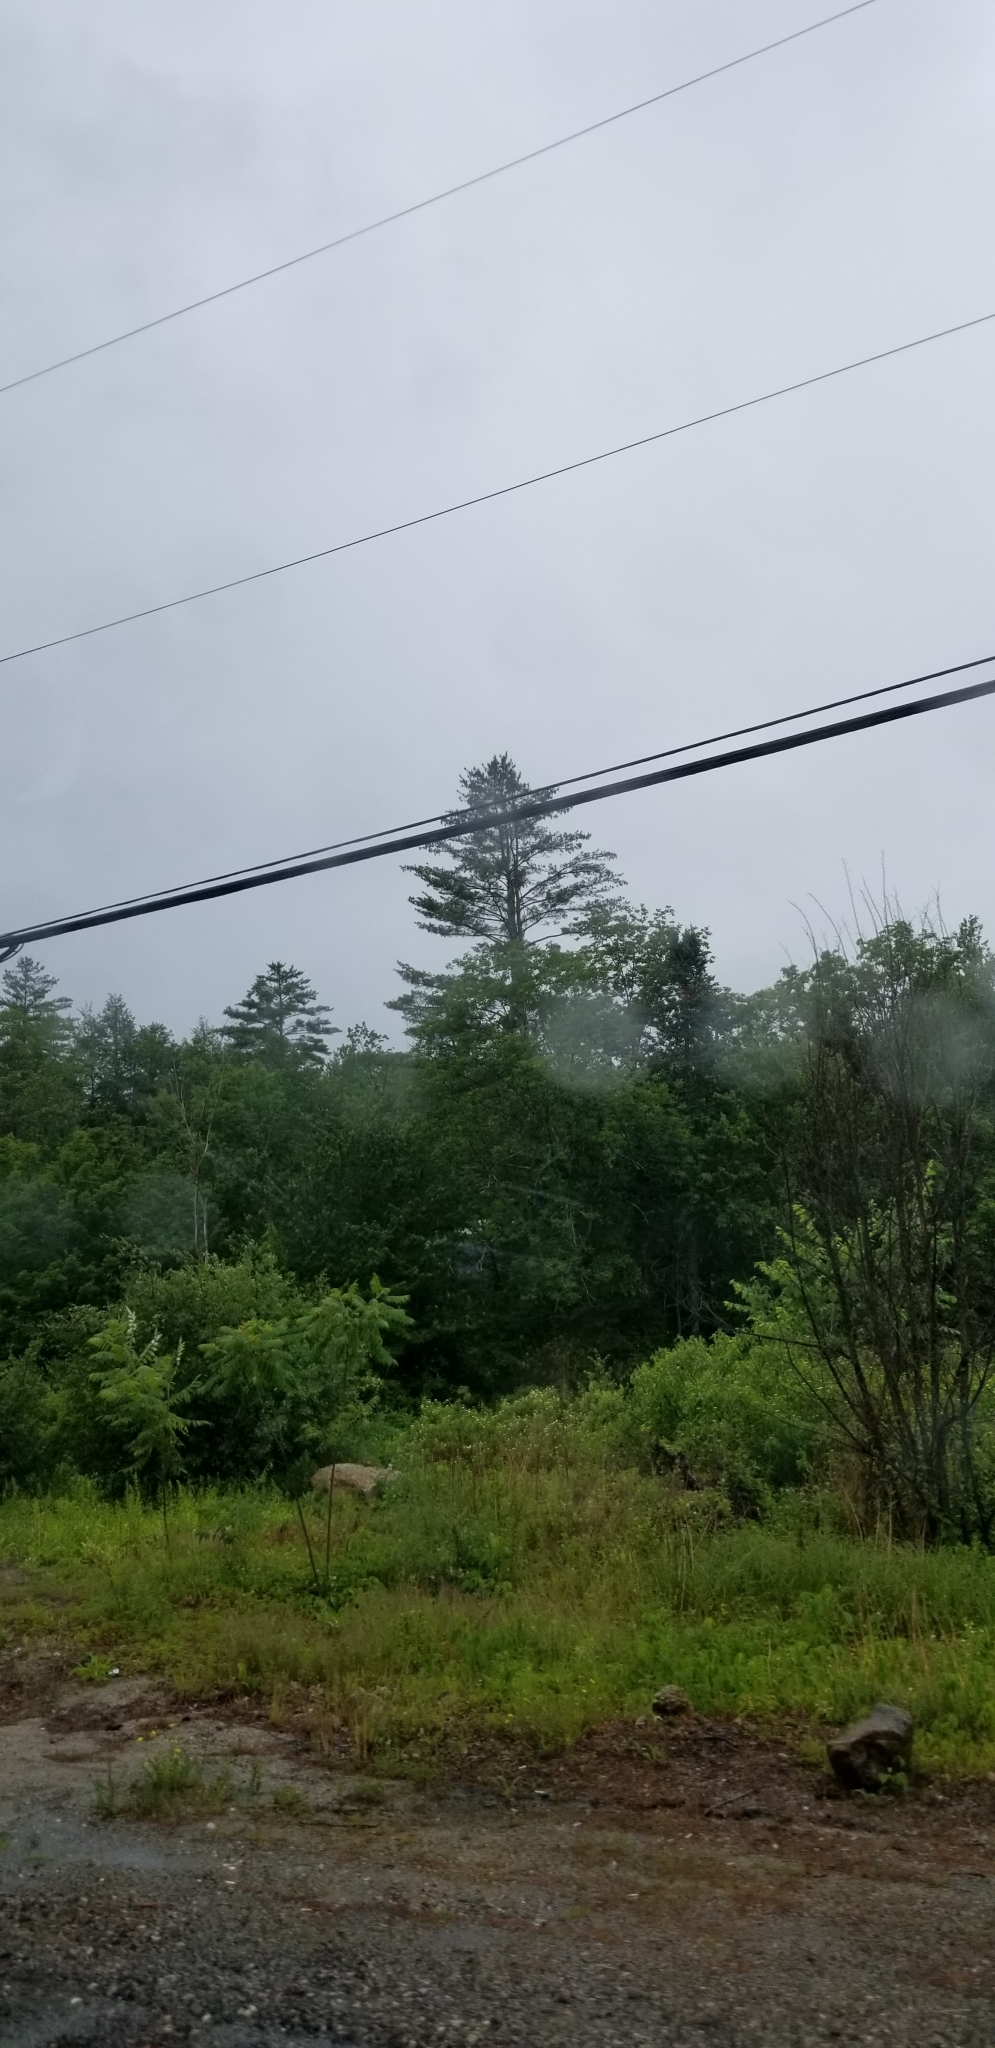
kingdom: Plantae
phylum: Tracheophyta
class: Pinopsida
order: Pinales
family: Pinaceae
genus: Pinus
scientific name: Pinus strobus
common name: Weymouth pine
